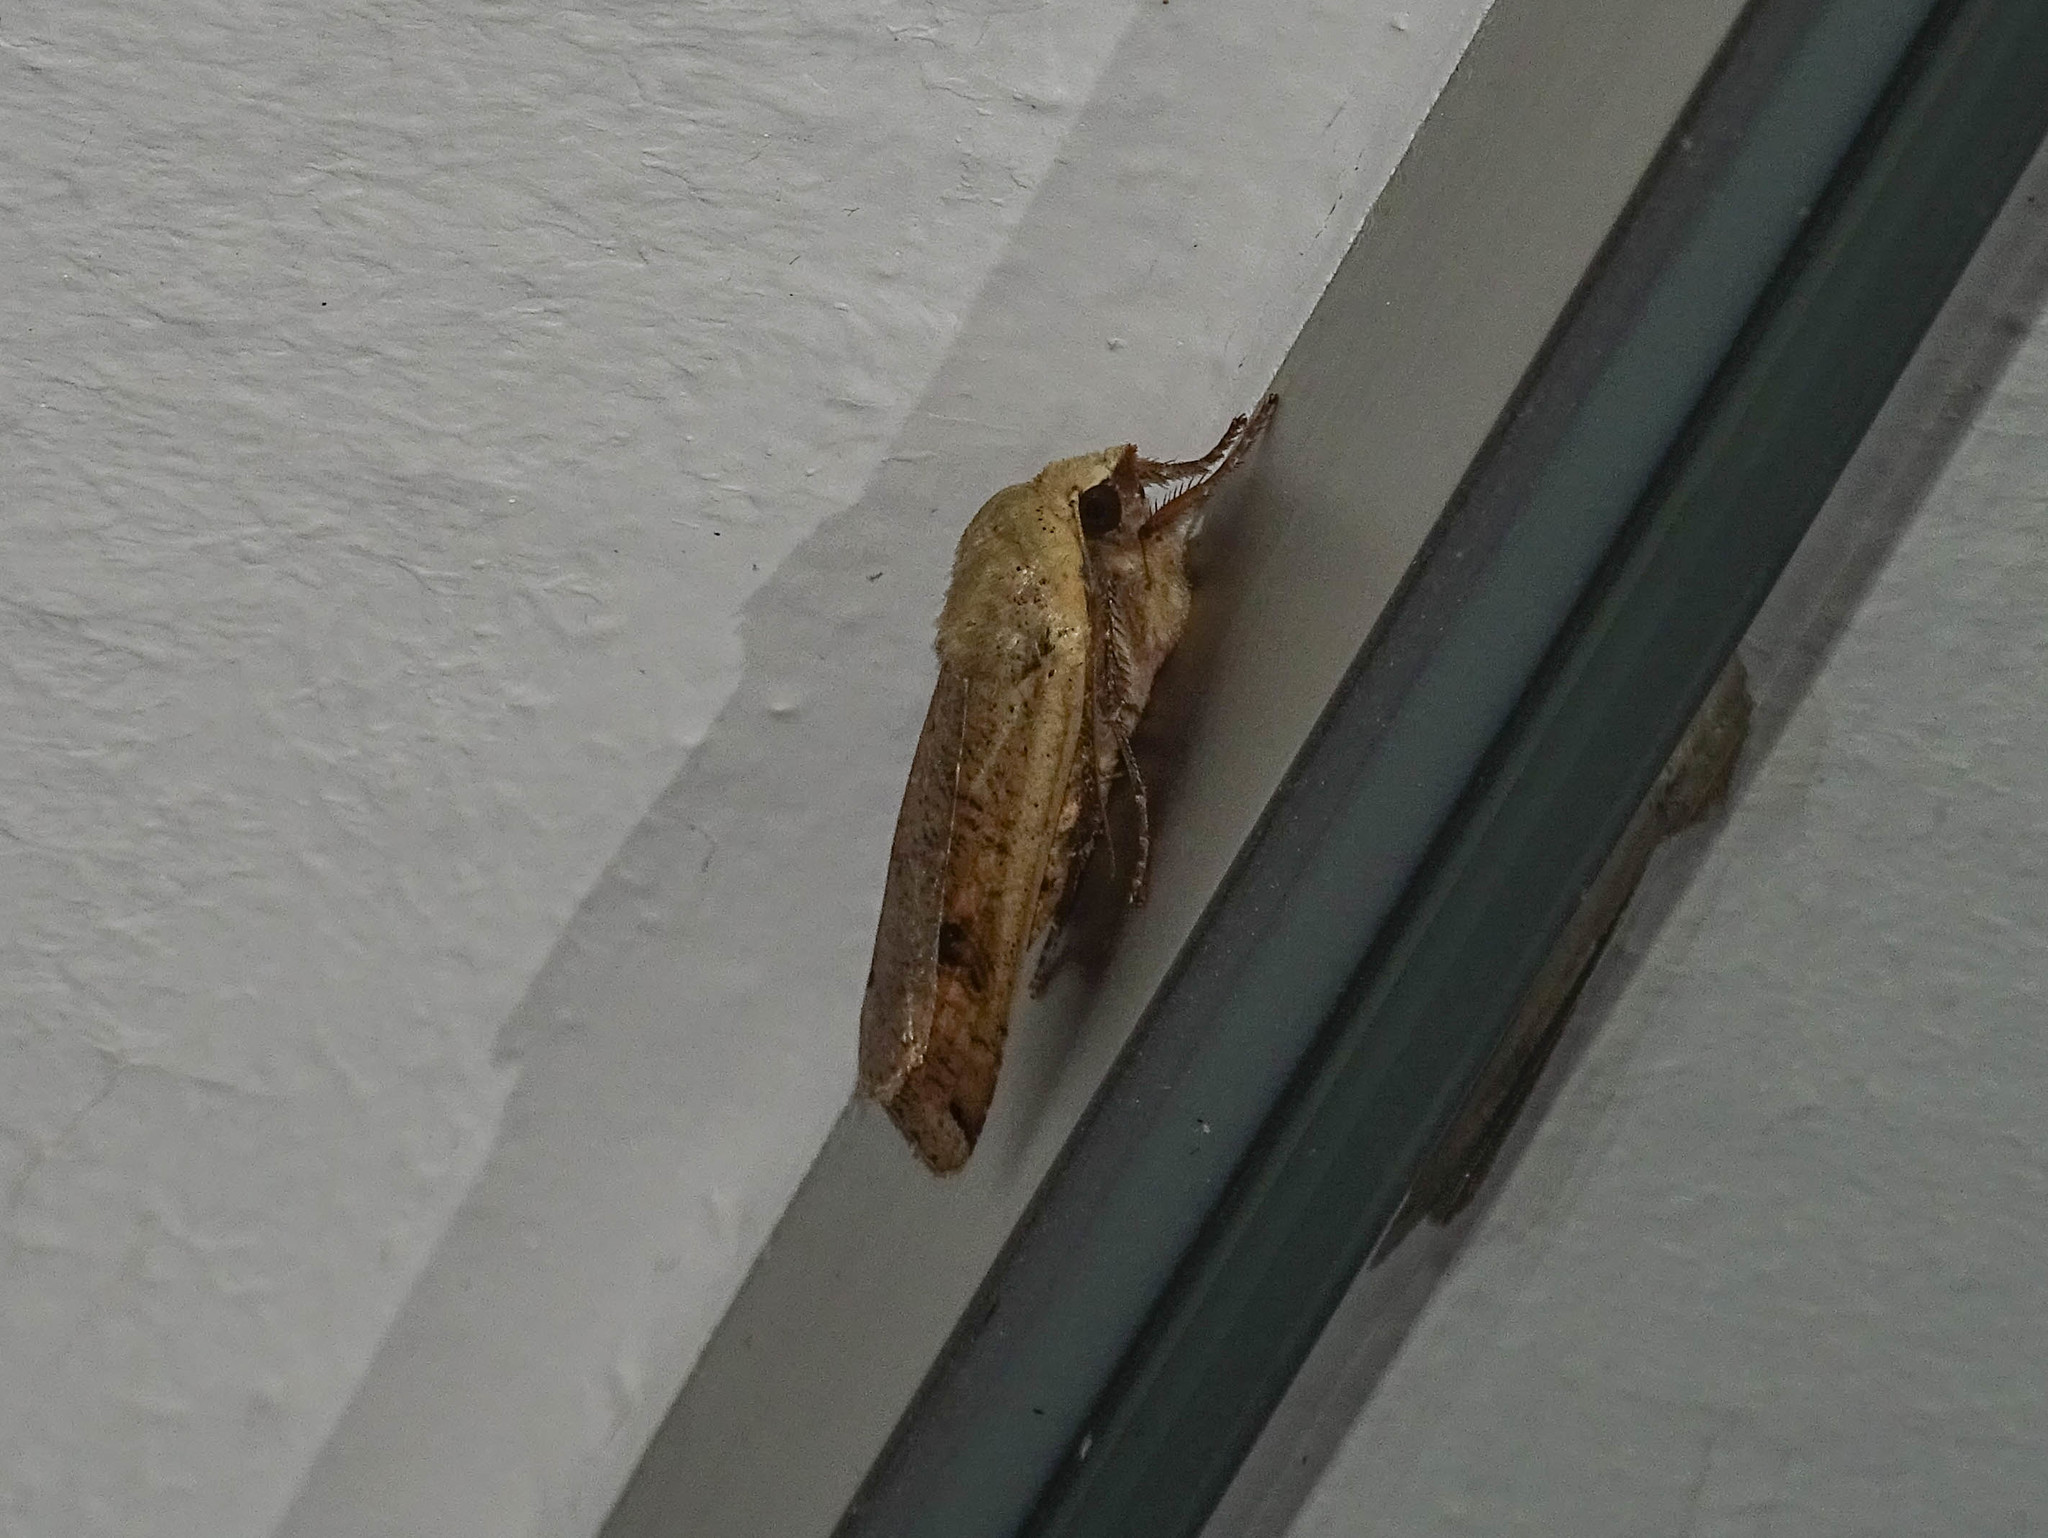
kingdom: Animalia
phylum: Arthropoda
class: Insecta
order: Lepidoptera
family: Noctuidae
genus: Noctua
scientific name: Noctua pronuba
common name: Large yellow underwing
